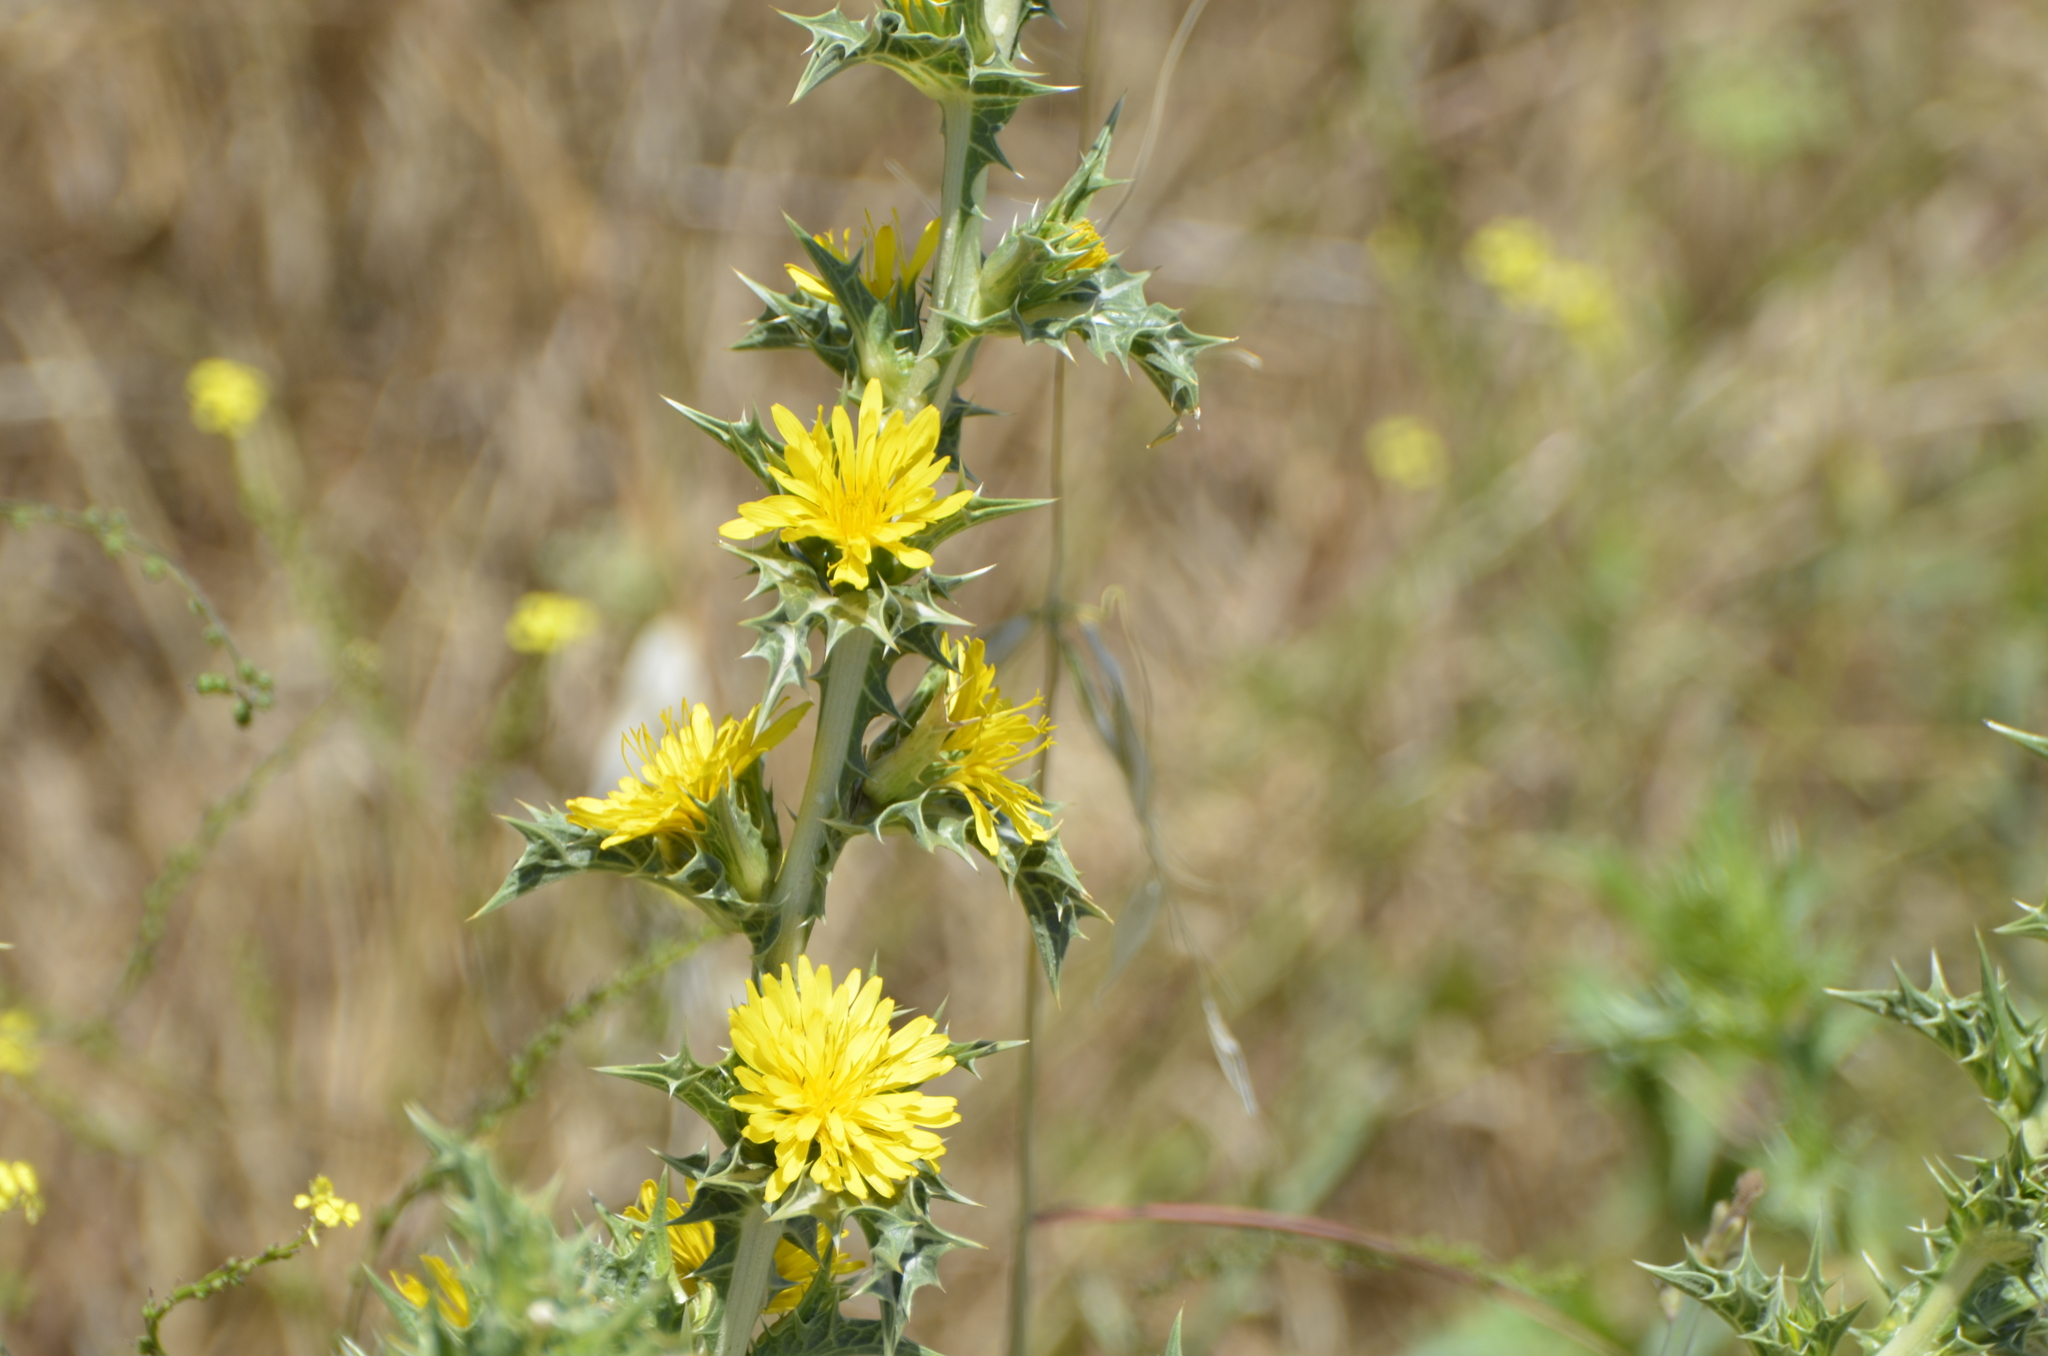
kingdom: Plantae
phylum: Tracheophyta
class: Magnoliopsida
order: Asterales
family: Asteraceae
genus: Scolymus
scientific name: Scolymus hispanicus
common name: Golden thistle
